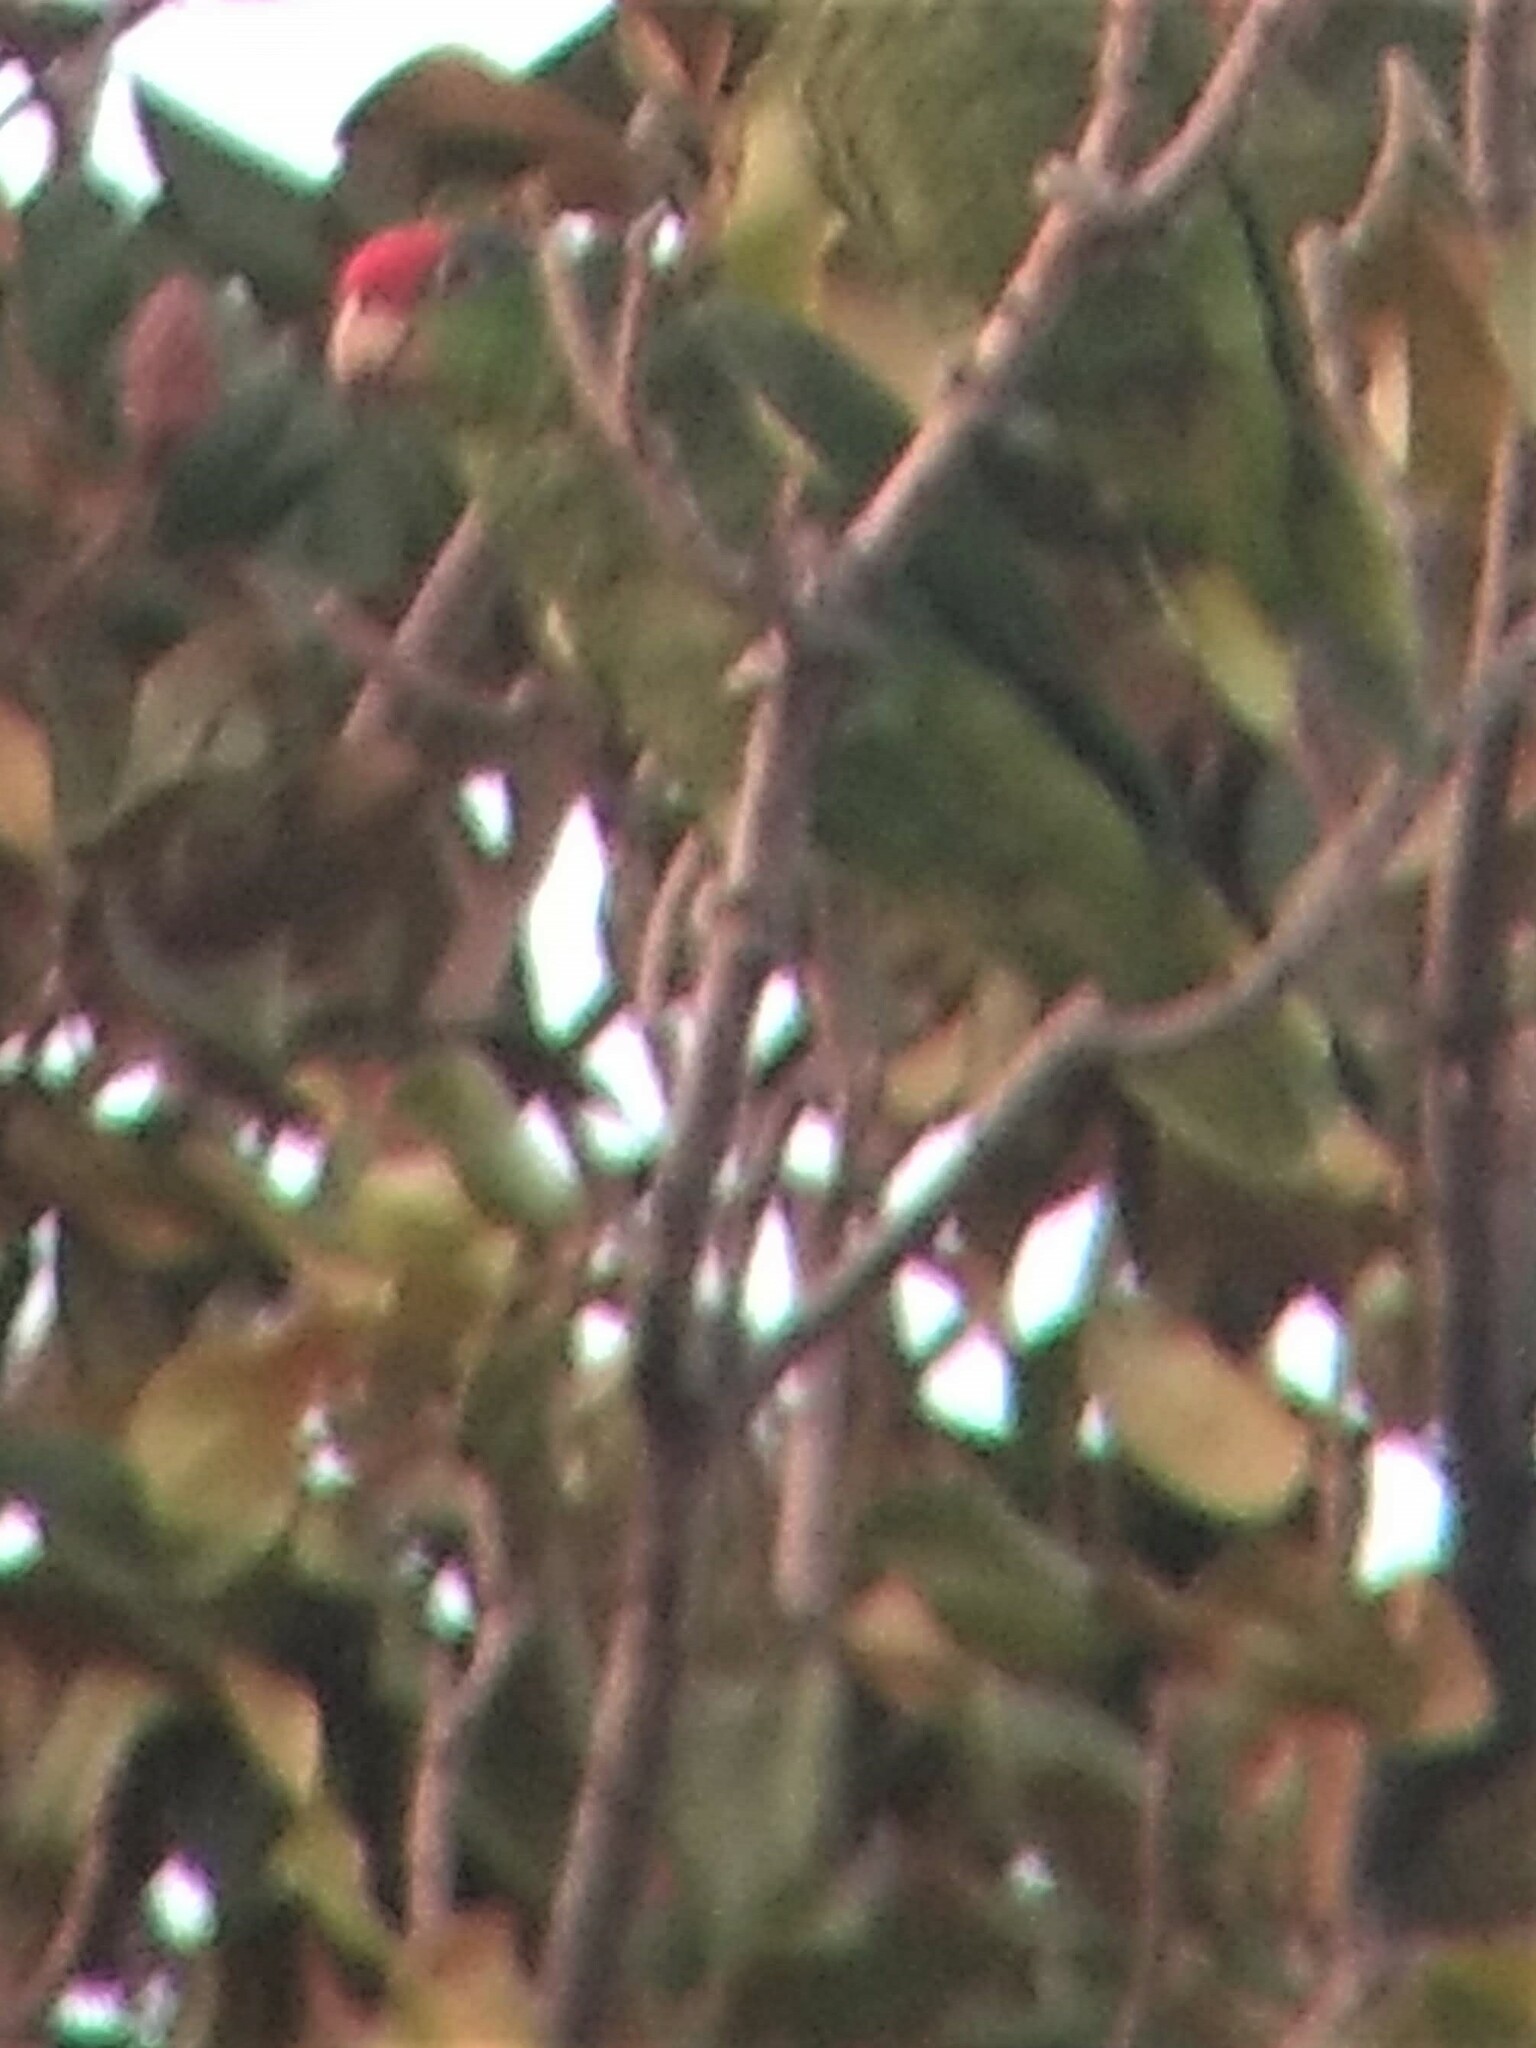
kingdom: Animalia
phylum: Chordata
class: Aves
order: Psittaciformes
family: Psittacidae
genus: Amazona
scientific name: Amazona viridigenalis
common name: Red-crowned amazon
